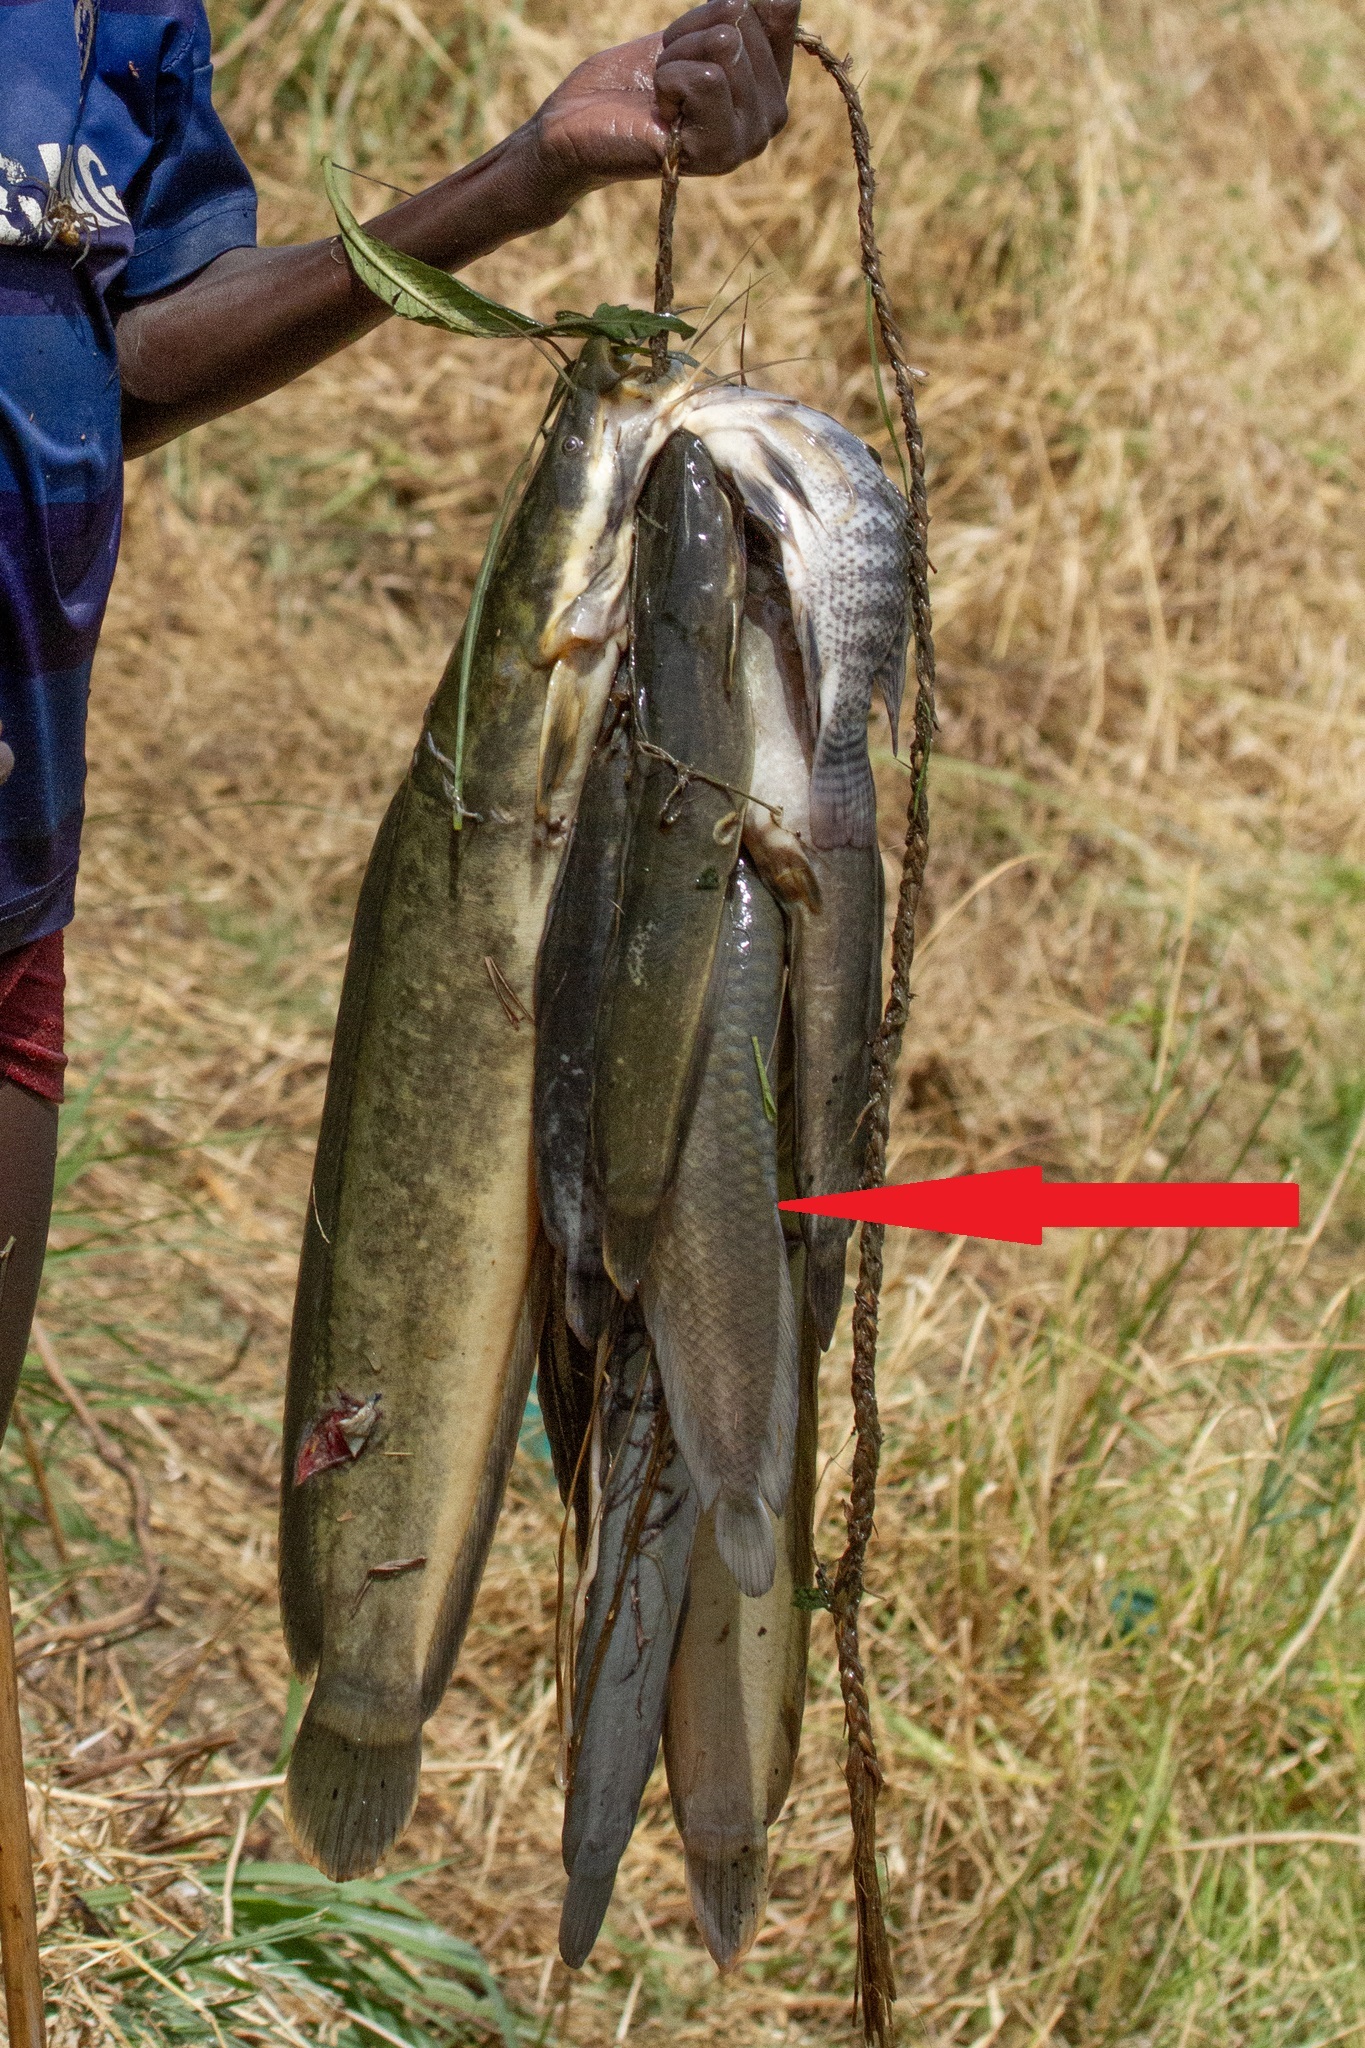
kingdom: Animalia
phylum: Chordata
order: Osteoglossiformes
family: Arapaimidae
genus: Heterotis
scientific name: Heterotis niloticus
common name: African bonytongue
